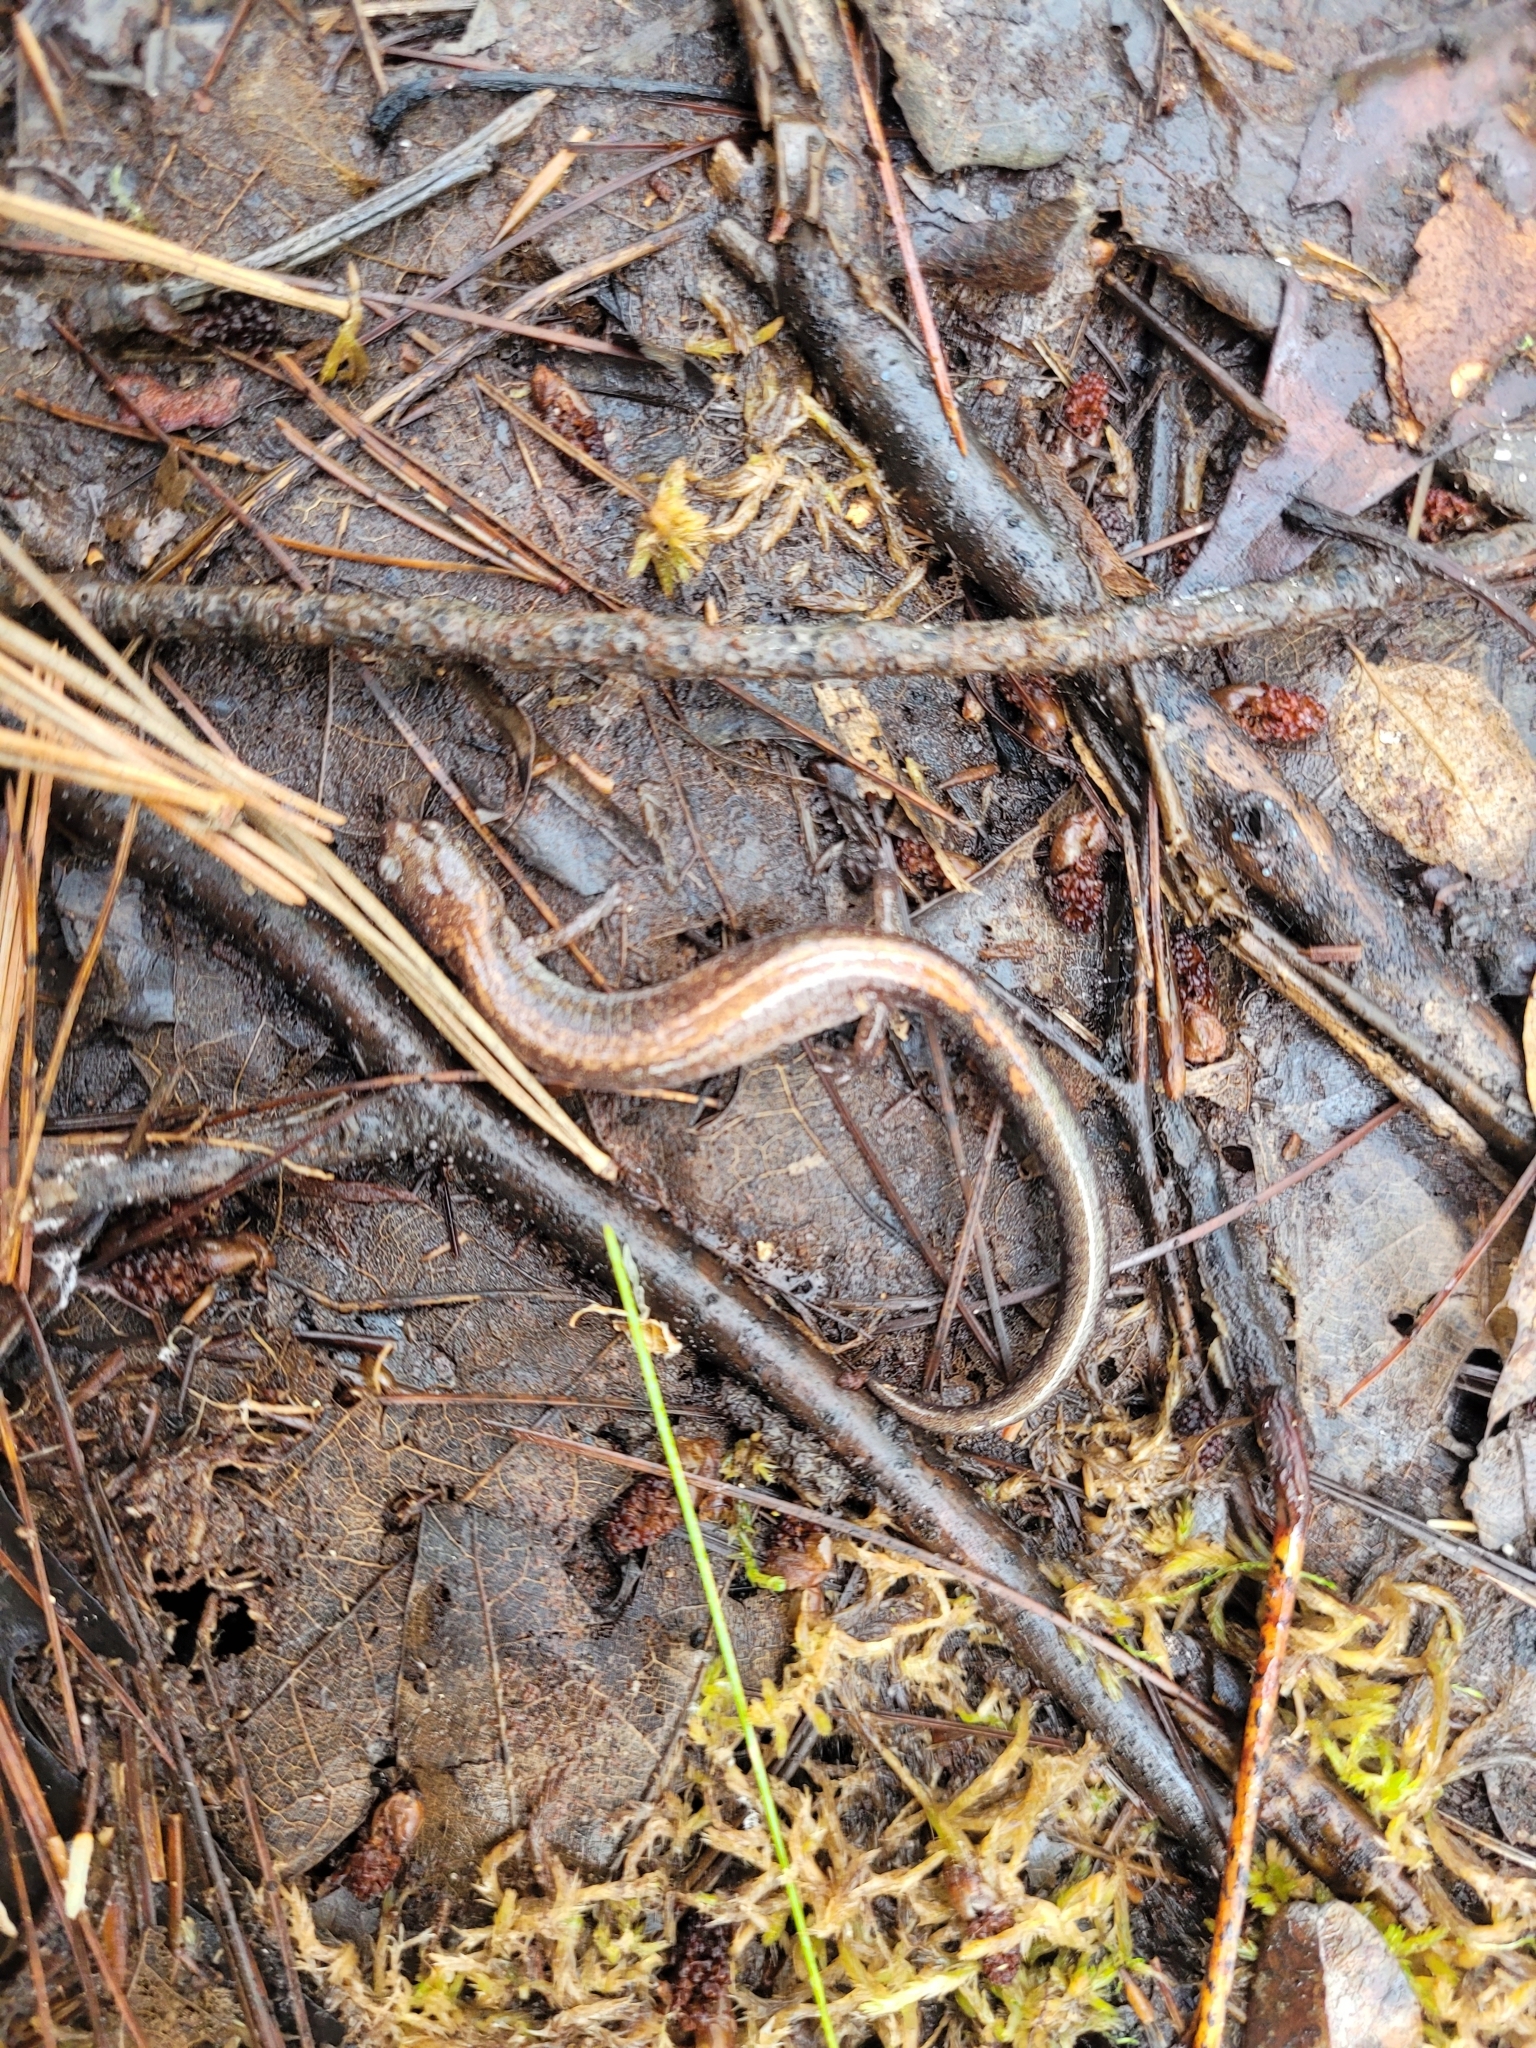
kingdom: Animalia
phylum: Chordata
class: Amphibia
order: Caudata
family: Plethodontidae
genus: Plethodon
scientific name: Plethodon cinereus
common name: Redback salamander
